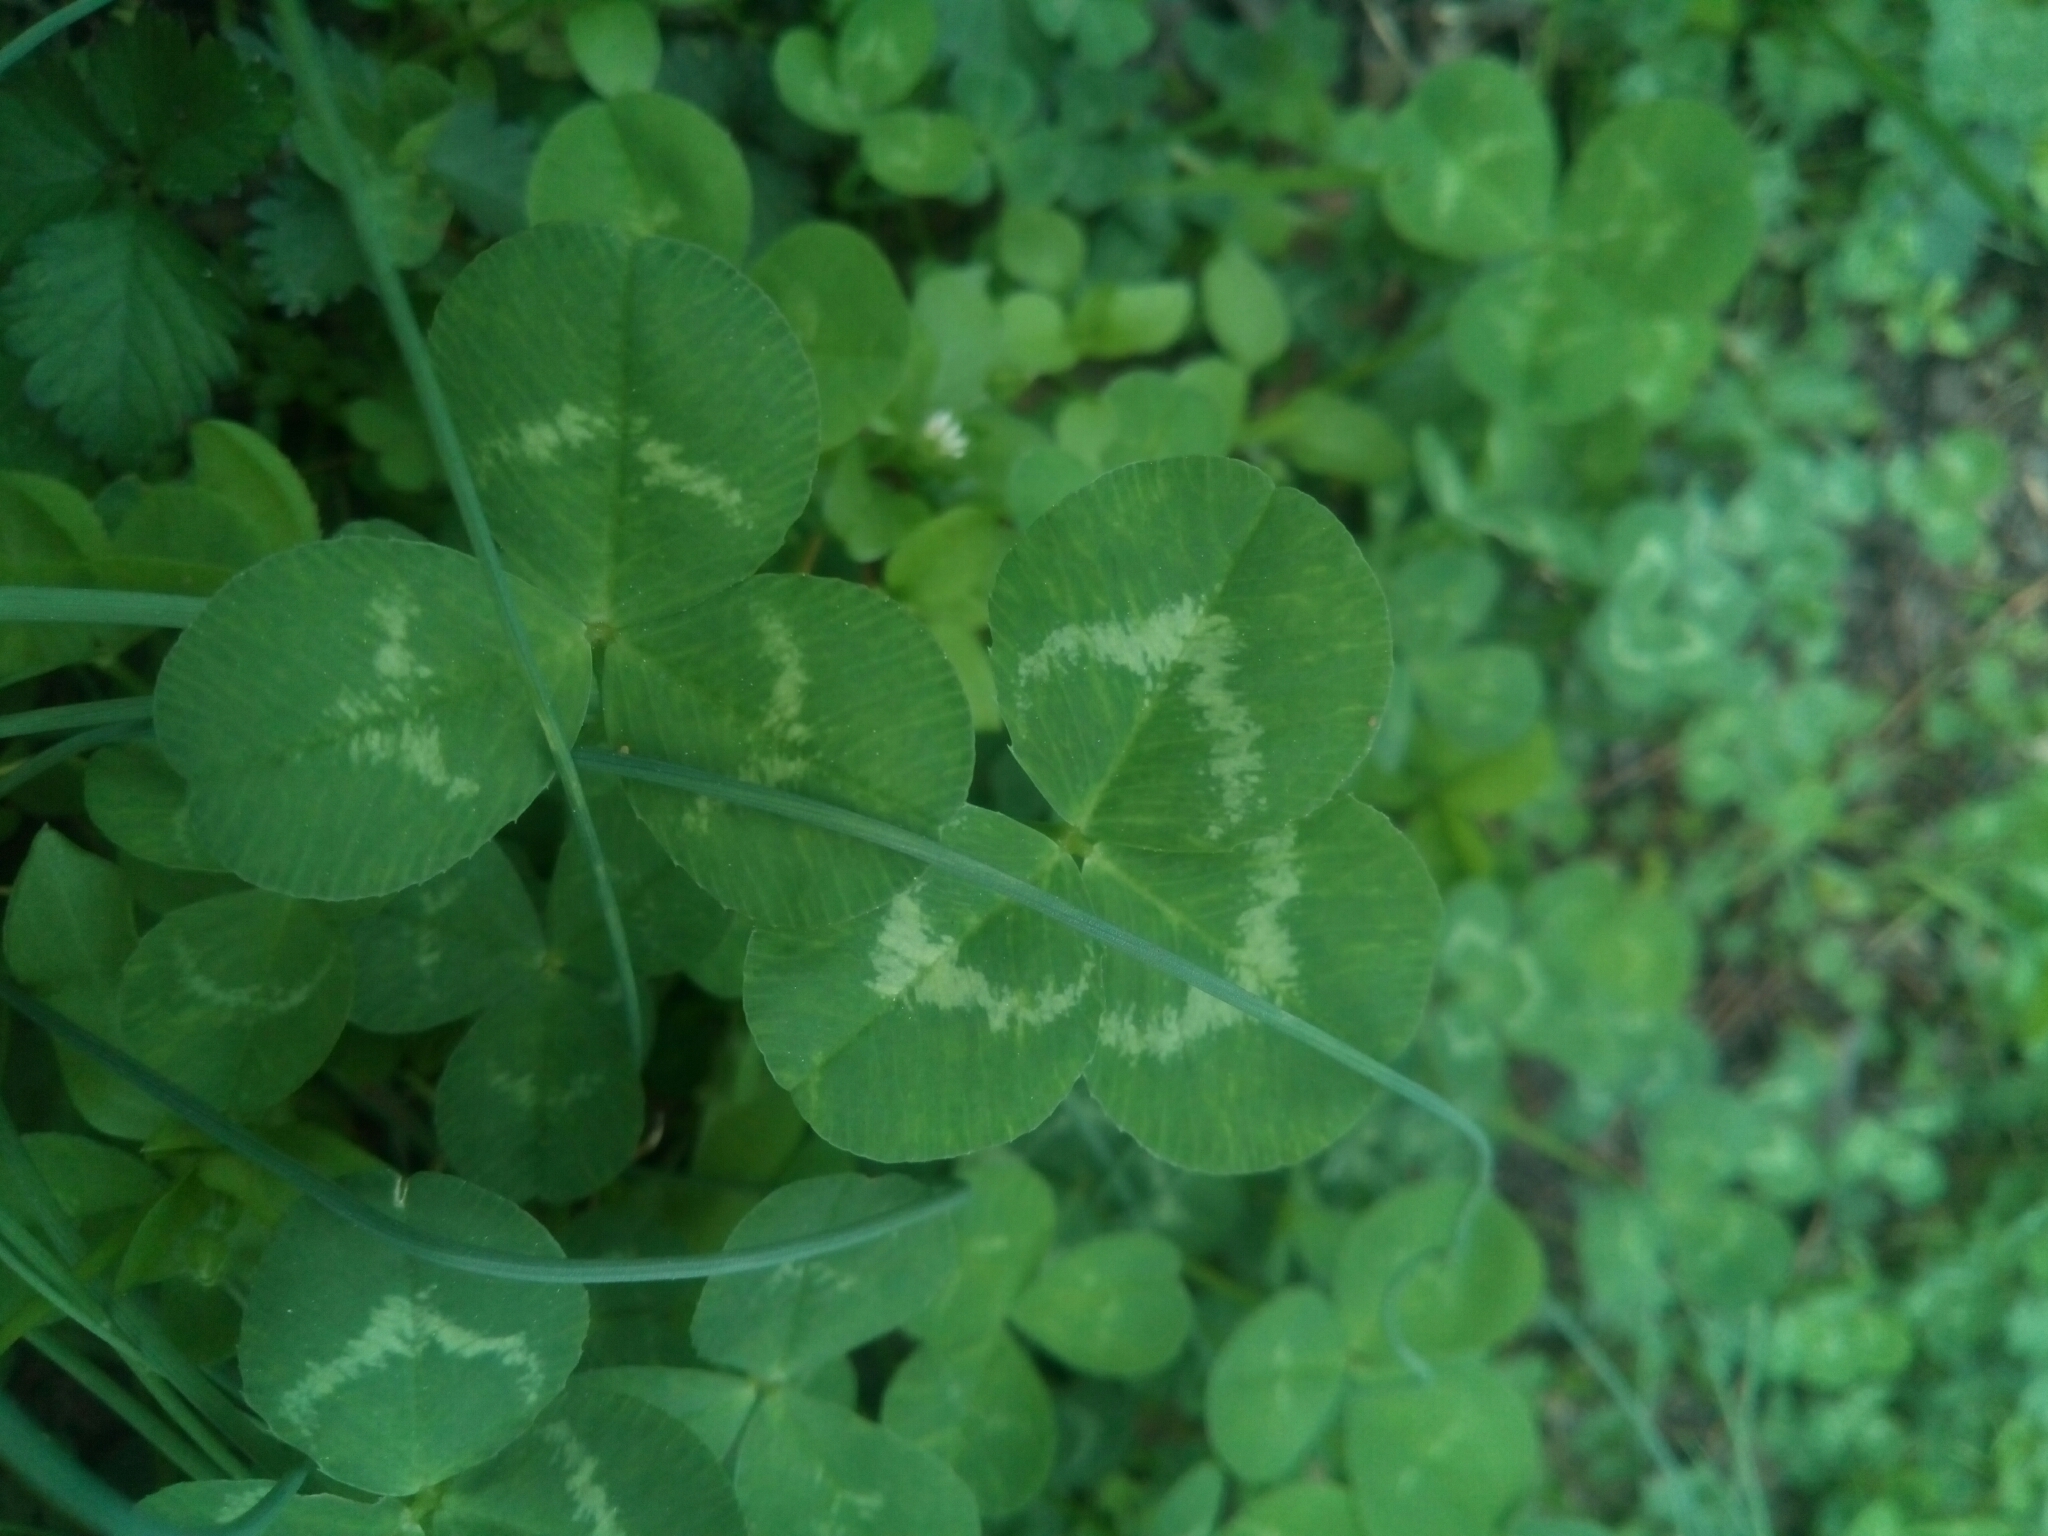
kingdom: Plantae
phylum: Tracheophyta
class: Magnoliopsida
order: Fabales
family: Fabaceae
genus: Trifolium
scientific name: Trifolium repens
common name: White clover
